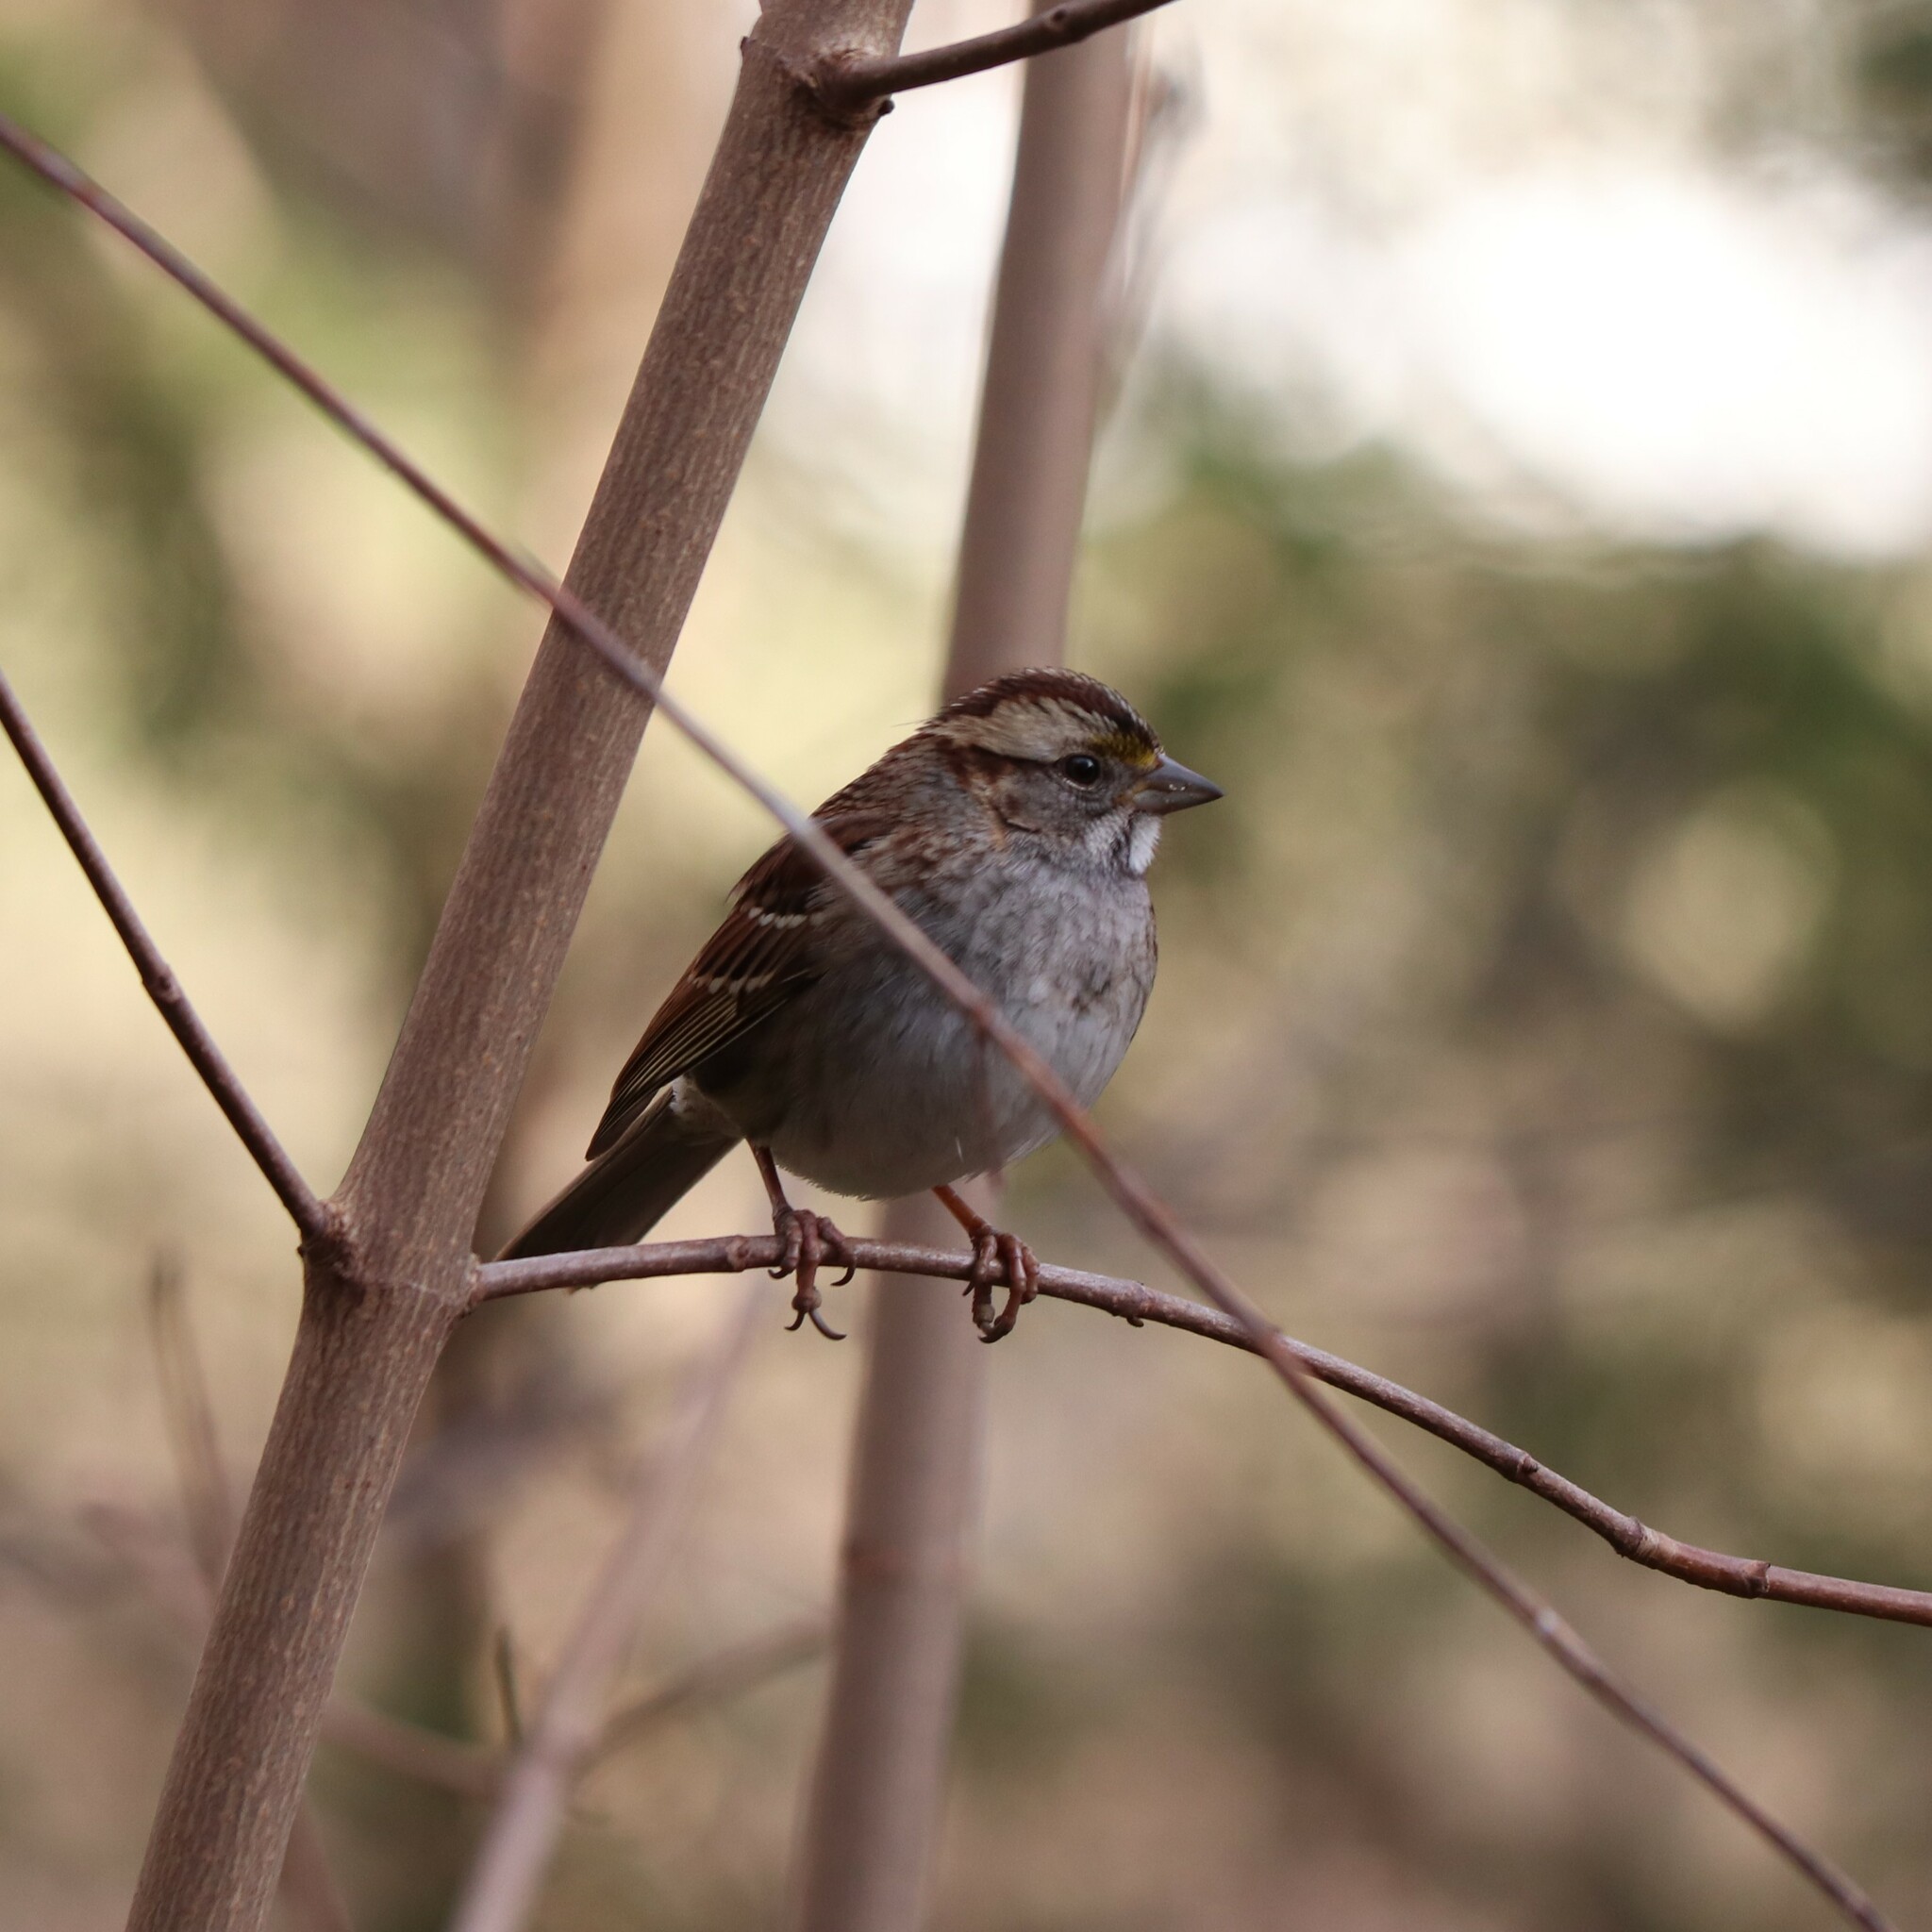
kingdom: Animalia
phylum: Chordata
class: Aves
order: Passeriformes
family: Passerellidae
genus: Zonotrichia
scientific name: Zonotrichia albicollis
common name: White-throated sparrow
